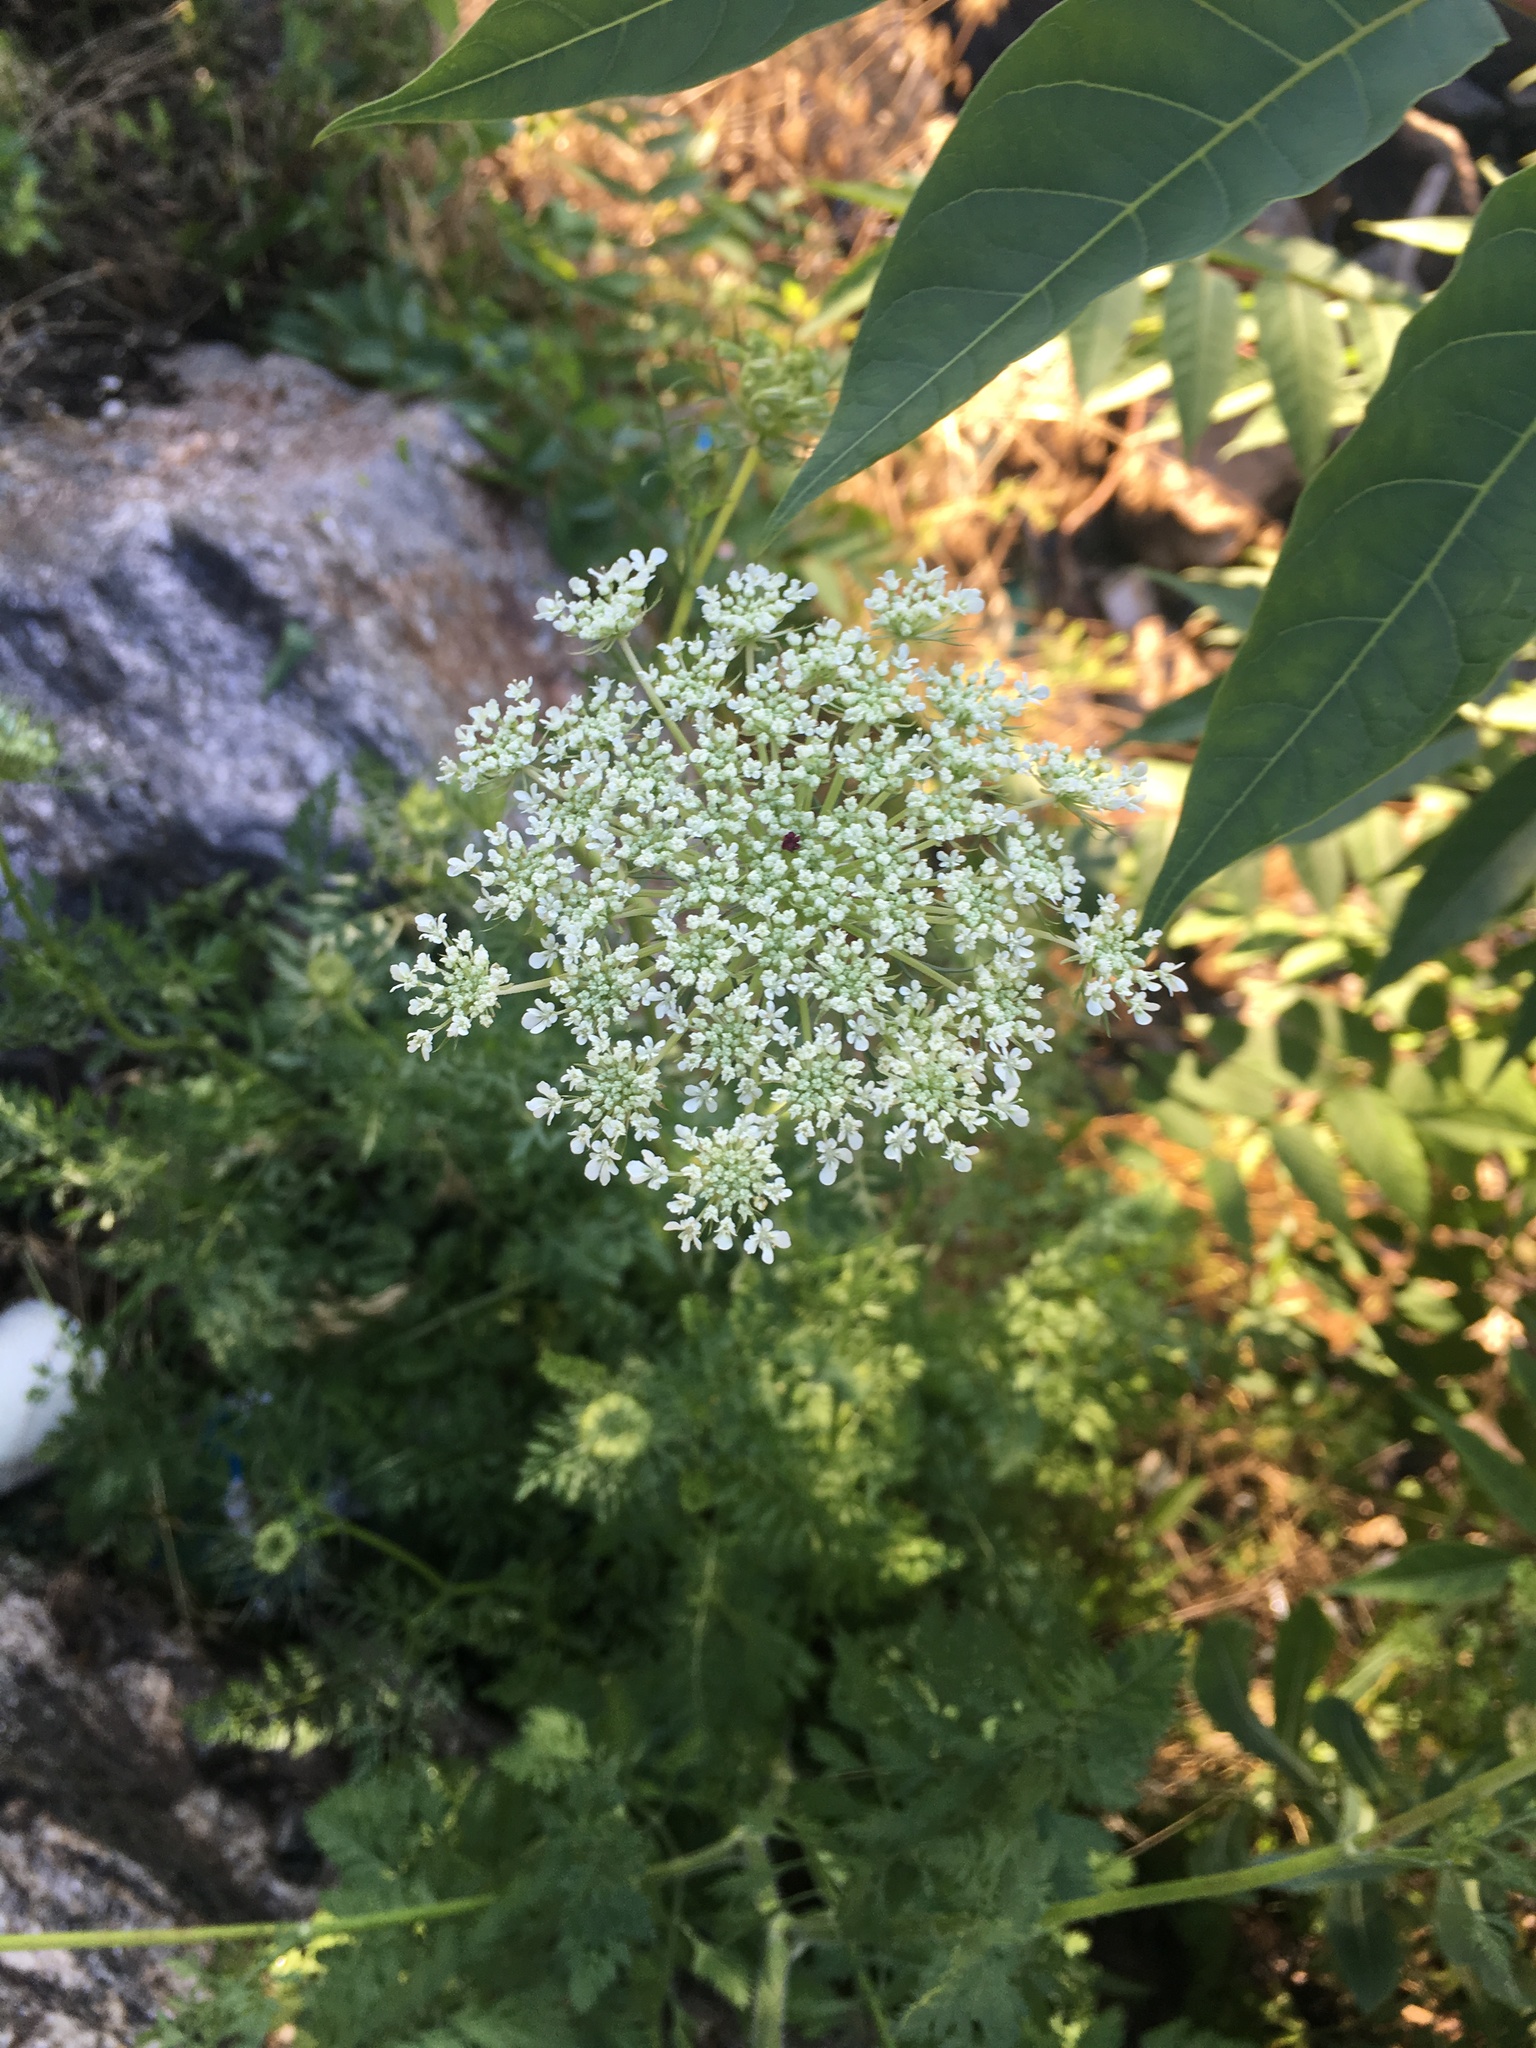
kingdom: Plantae
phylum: Tracheophyta
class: Magnoliopsida
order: Apiales
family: Apiaceae
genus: Daucus
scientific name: Daucus carota
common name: Wild carrot
